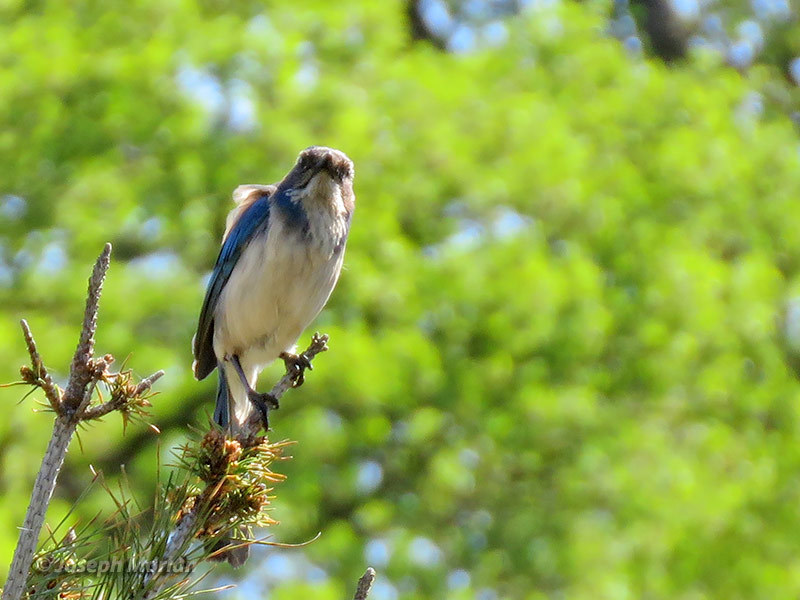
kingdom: Animalia
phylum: Chordata
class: Aves
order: Passeriformes
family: Corvidae
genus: Aphelocoma
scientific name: Aphelocoma californica
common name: California scrub-jay
